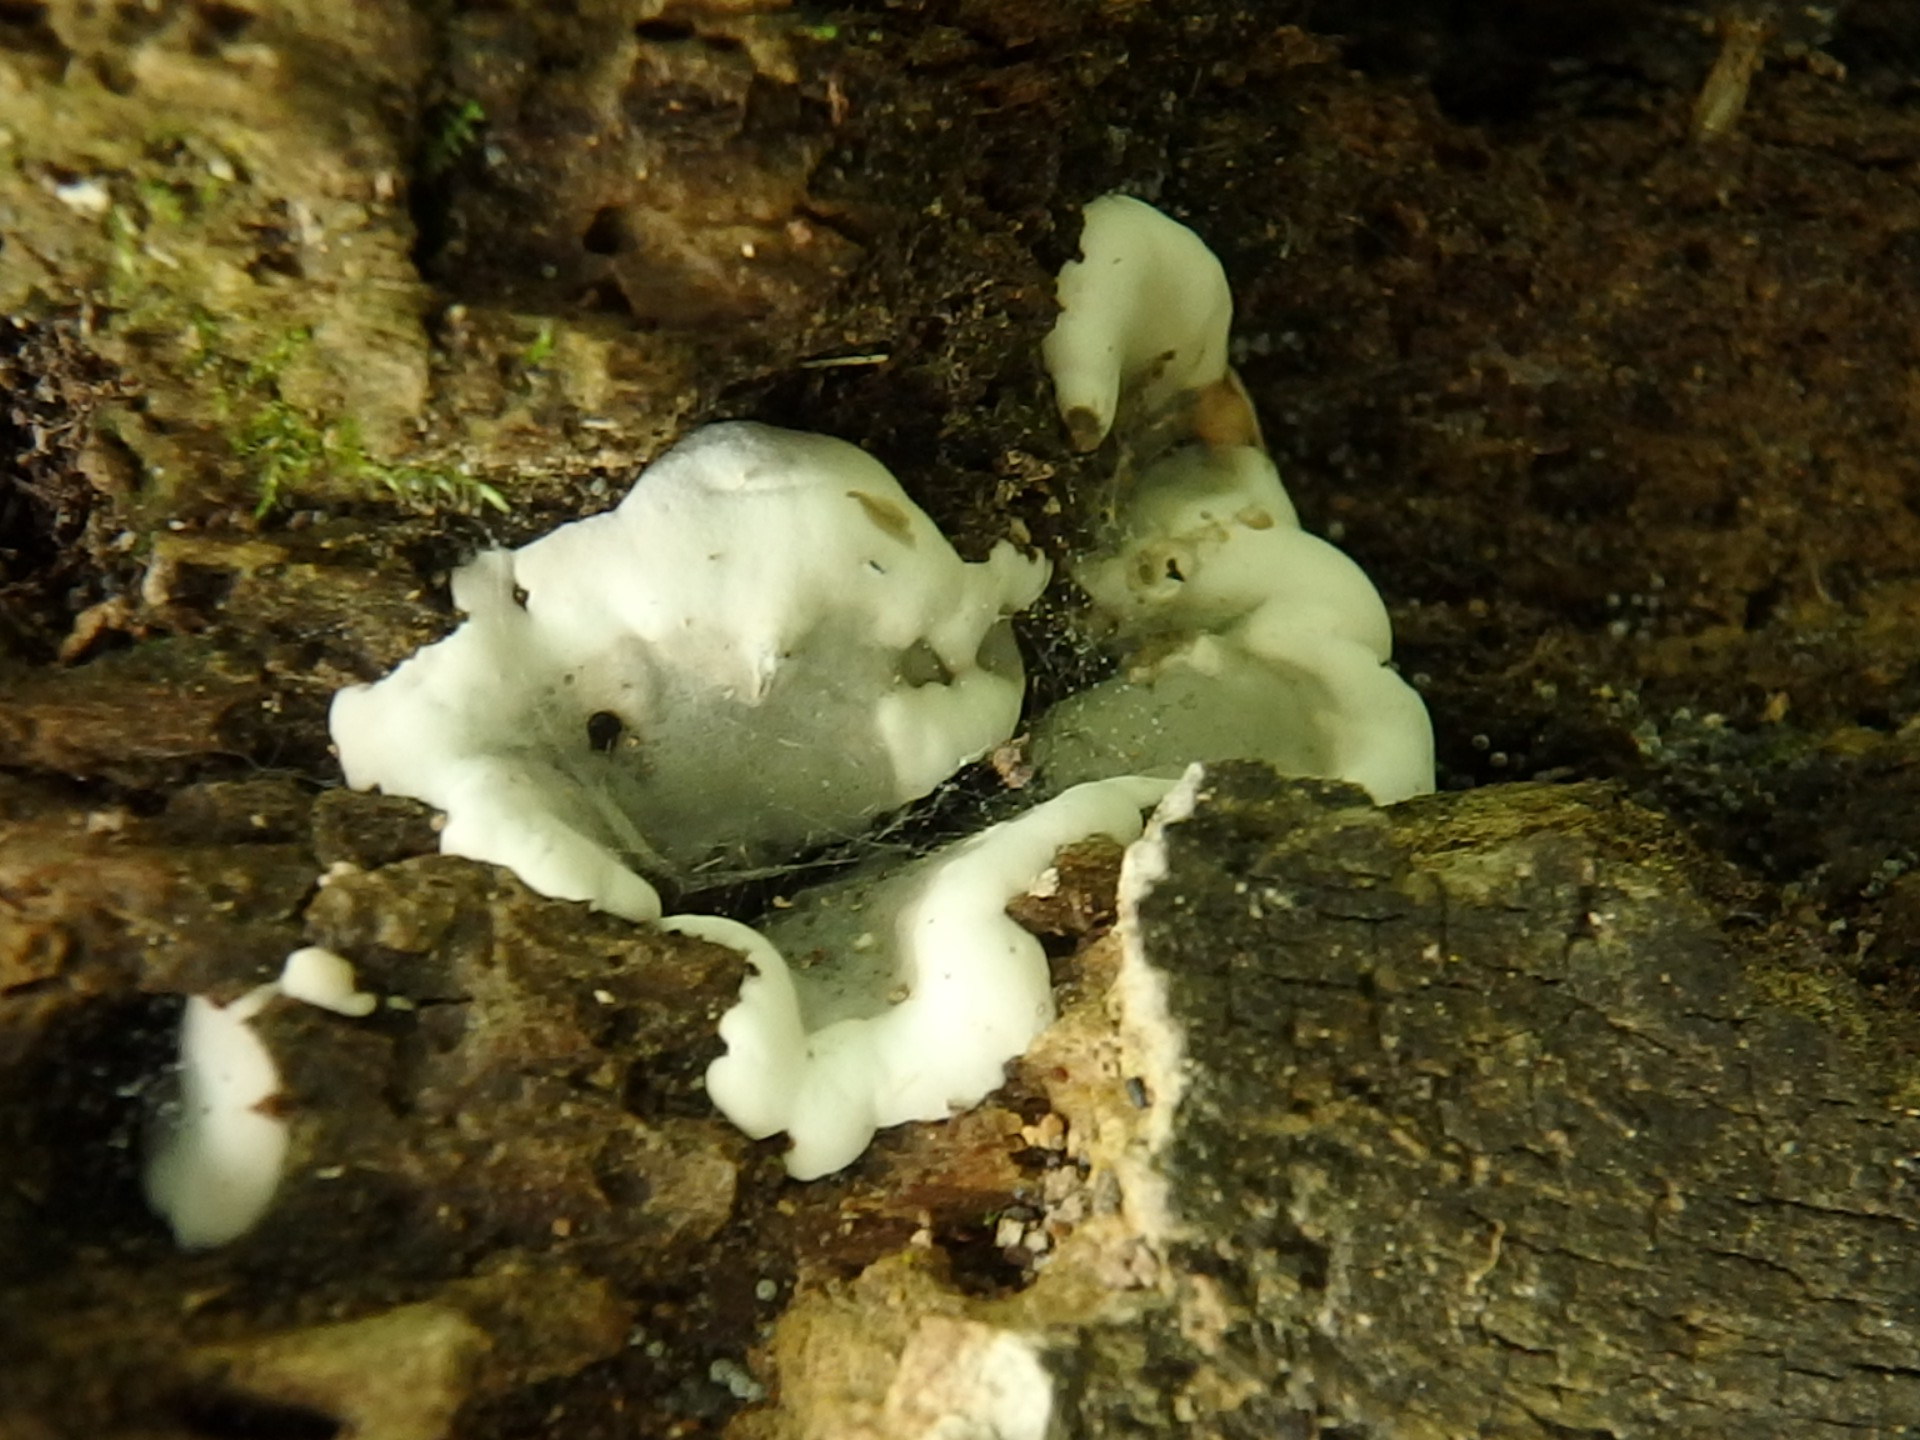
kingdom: Fungi
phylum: Ascomycota
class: Sordariomycetes
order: Xylariales
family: Xylariaceae
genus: Kretzschmaria
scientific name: Kretzschmaria deusta
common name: Brittle cinder
